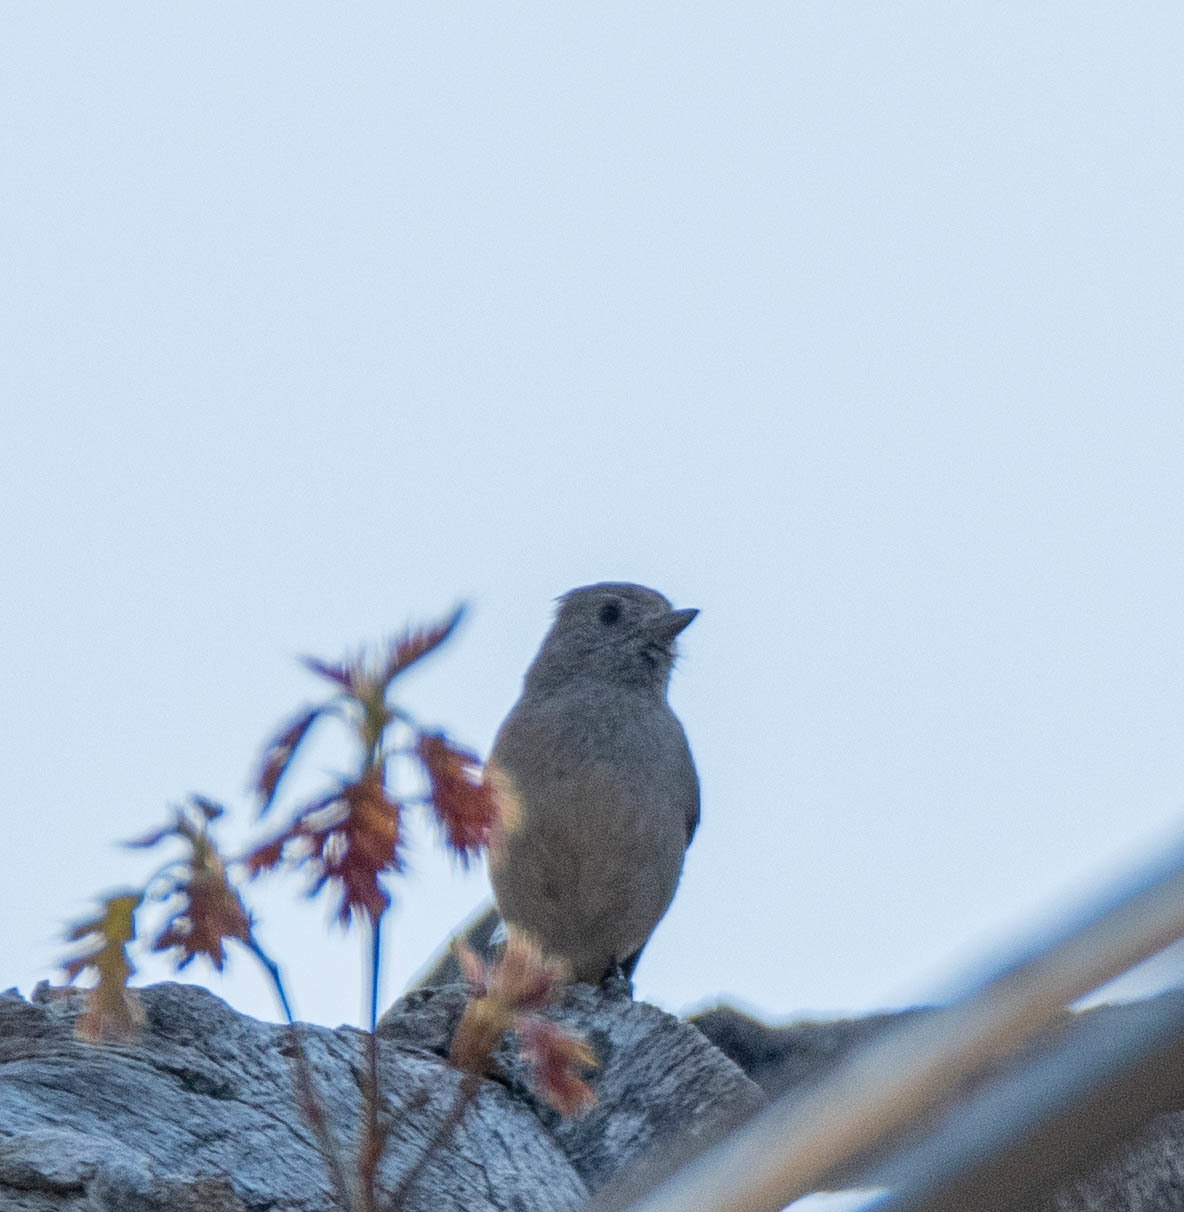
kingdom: Animalia
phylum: Chordata
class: Aves
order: Passeriformes
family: Paridae
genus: Baeolophus
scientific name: Baeolophus inornatus
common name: Oak titmouse
